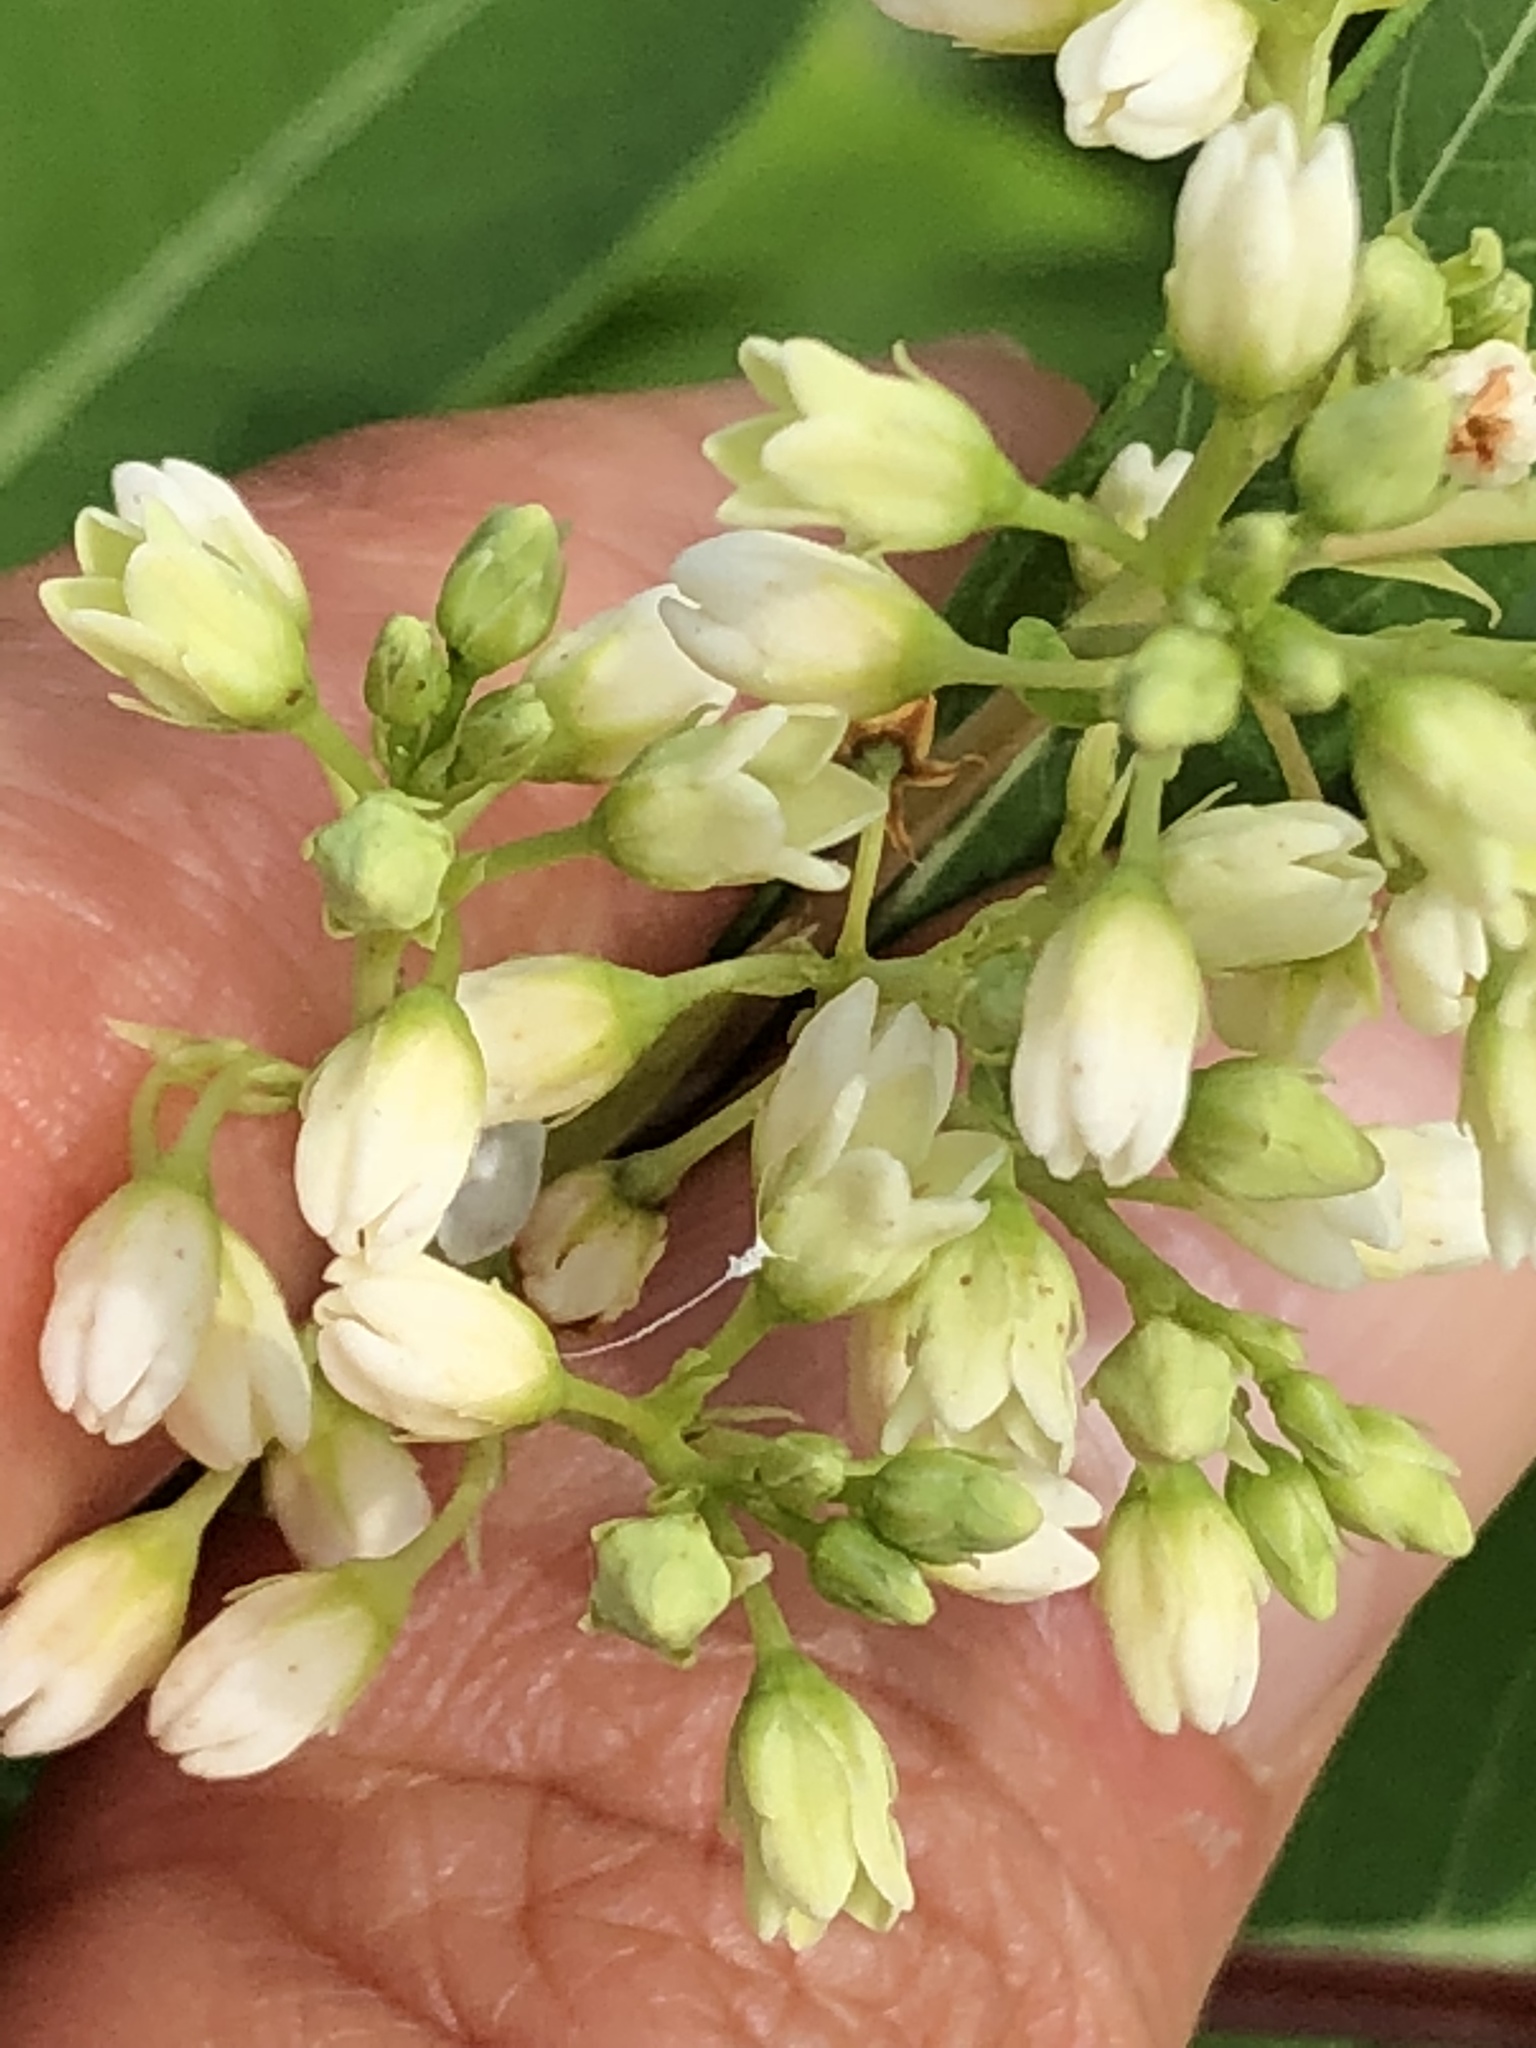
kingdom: Plantae
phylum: Tracheophyta
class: Magnoliopsida
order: Gentianales
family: Apocynaceae
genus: Apocynum
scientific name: Apocynum cannabinum
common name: Hemp dogbane
